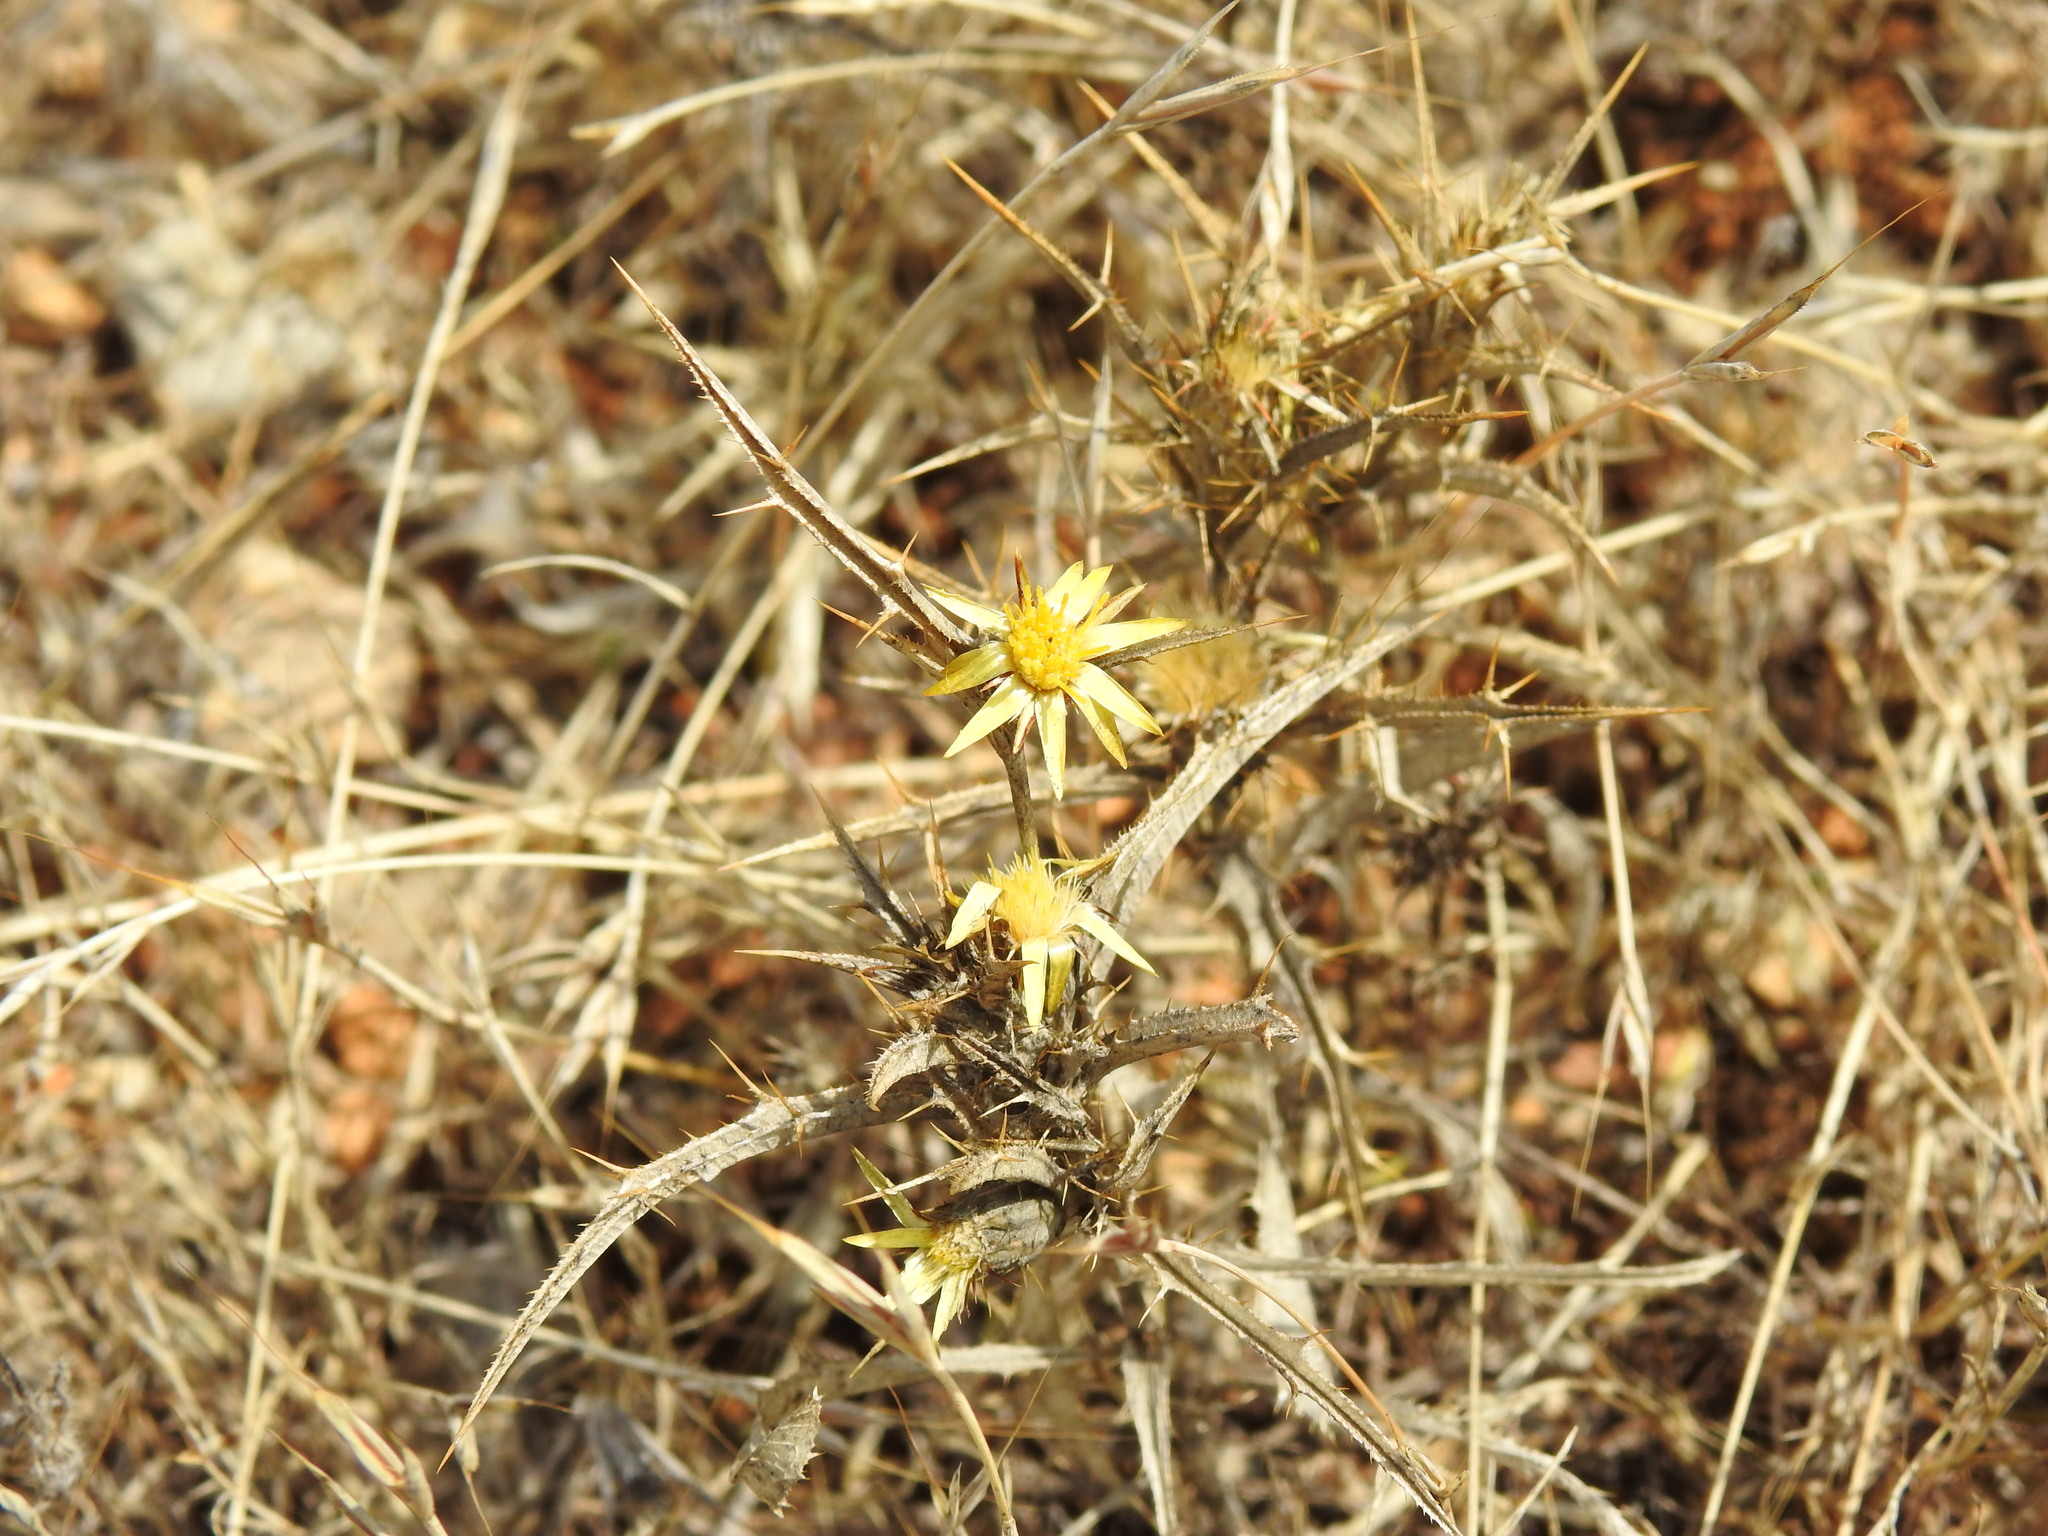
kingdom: Plantae
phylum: Tracheophyta
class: Magnoliopsida
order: Asterales
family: Asteraceae
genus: Carlina
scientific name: Carlina racemosa
